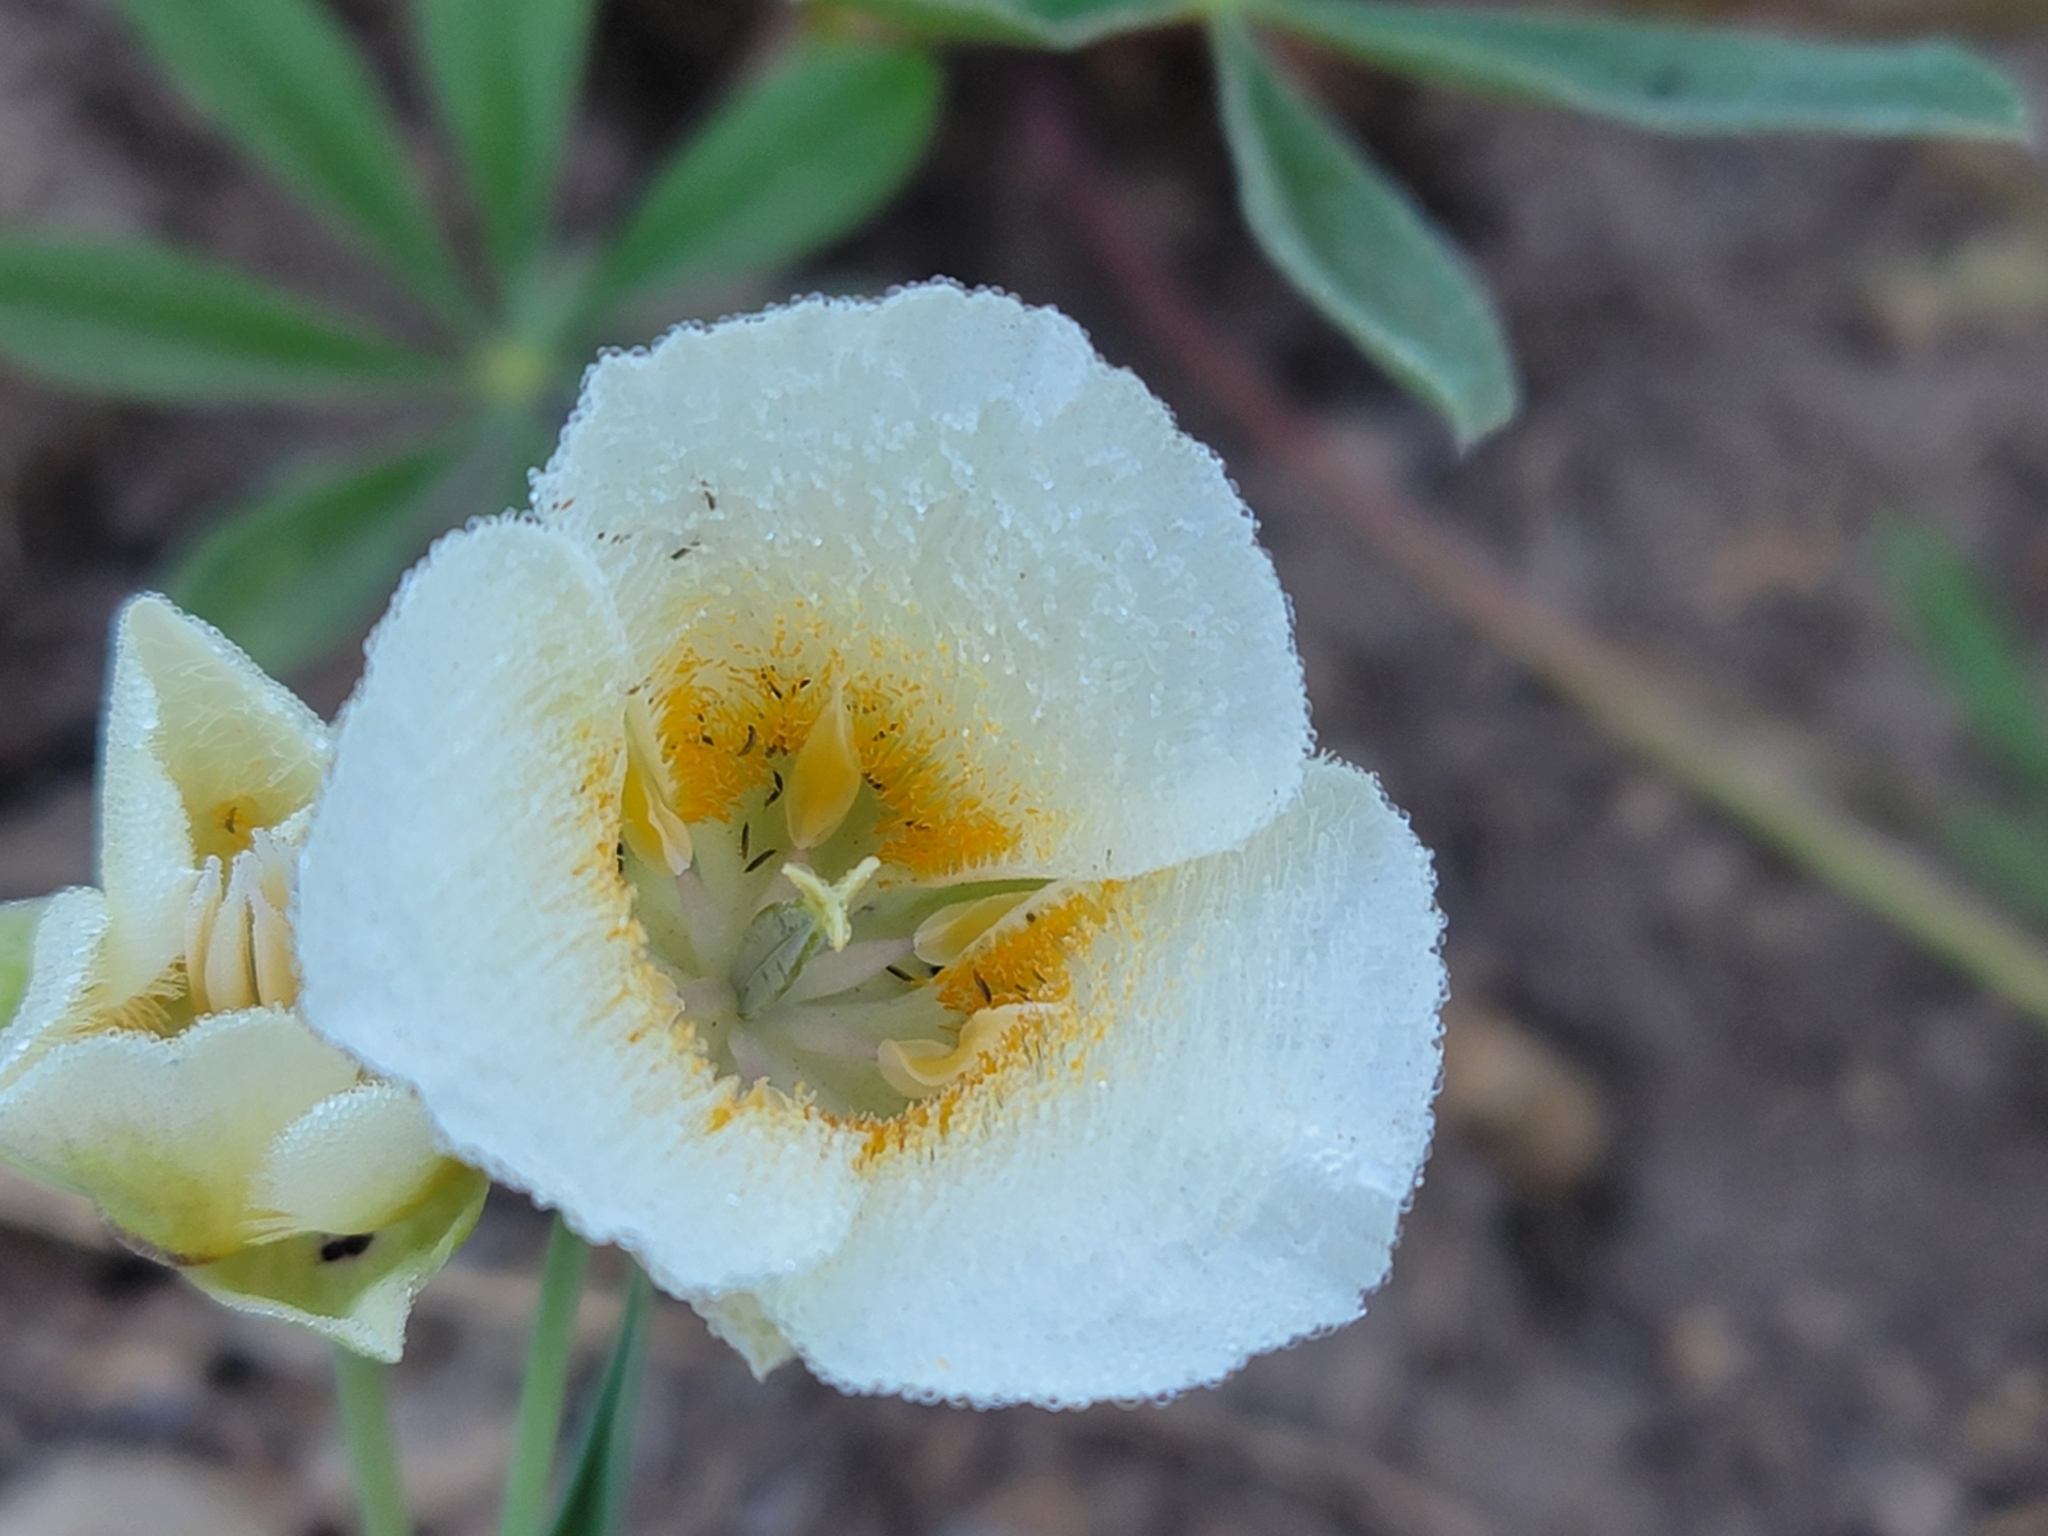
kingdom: Plantae
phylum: Tracheophyta
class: Liliopsida
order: Liliales
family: Liliaceae
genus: Calochortus
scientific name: Calochortus subalpinus
